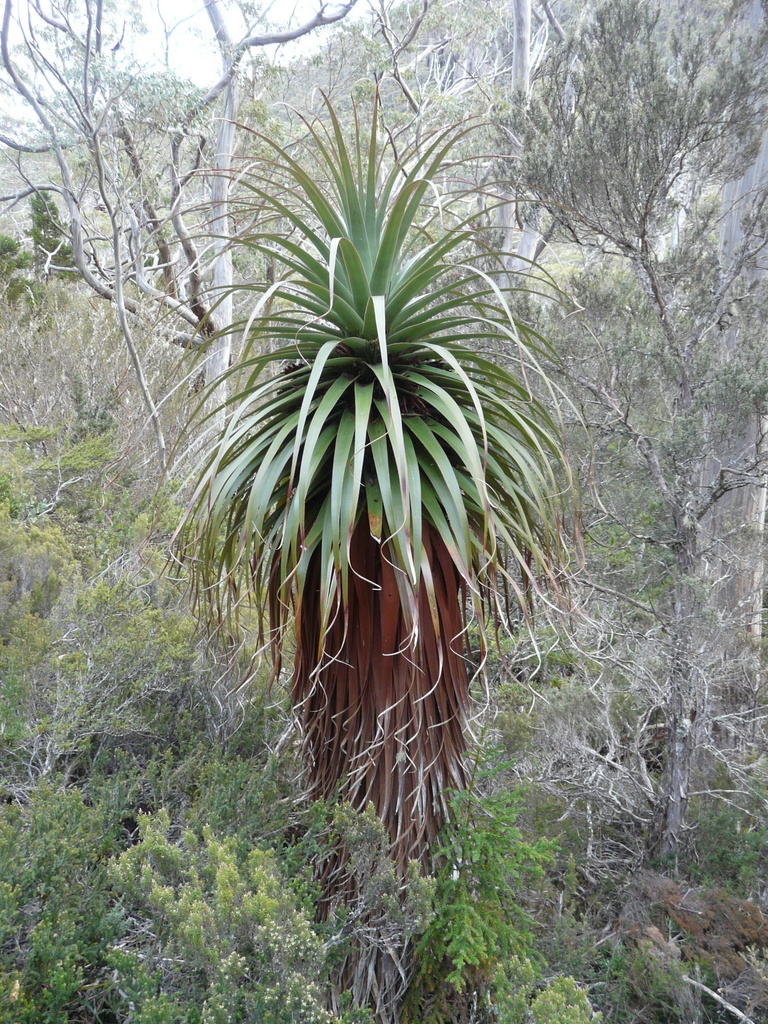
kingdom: Plantae
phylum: Tracheophyta
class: Magnoliopsida
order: Ericales
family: Ericaceae
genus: Dracophyllum
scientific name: Dracophyllum pandanifolium
